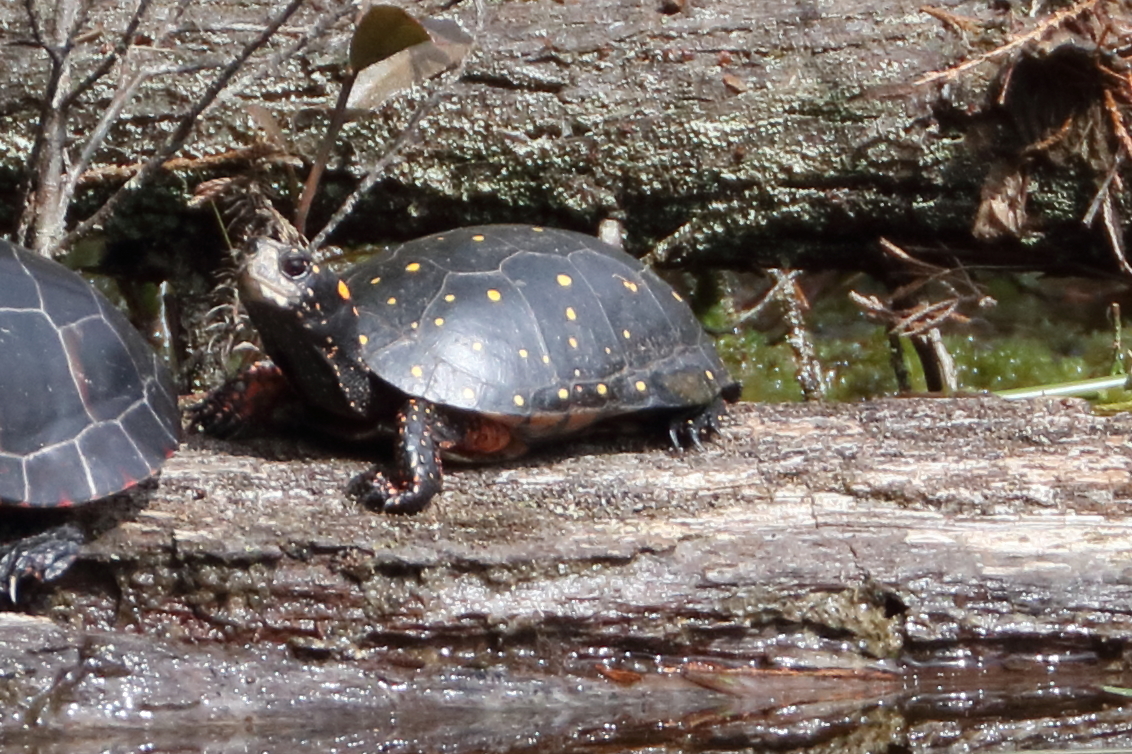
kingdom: Animalia
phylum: Chordata
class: Testudines
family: Emydidae
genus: Clemmys
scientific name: Clemmys guttata
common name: Spotted turtle
